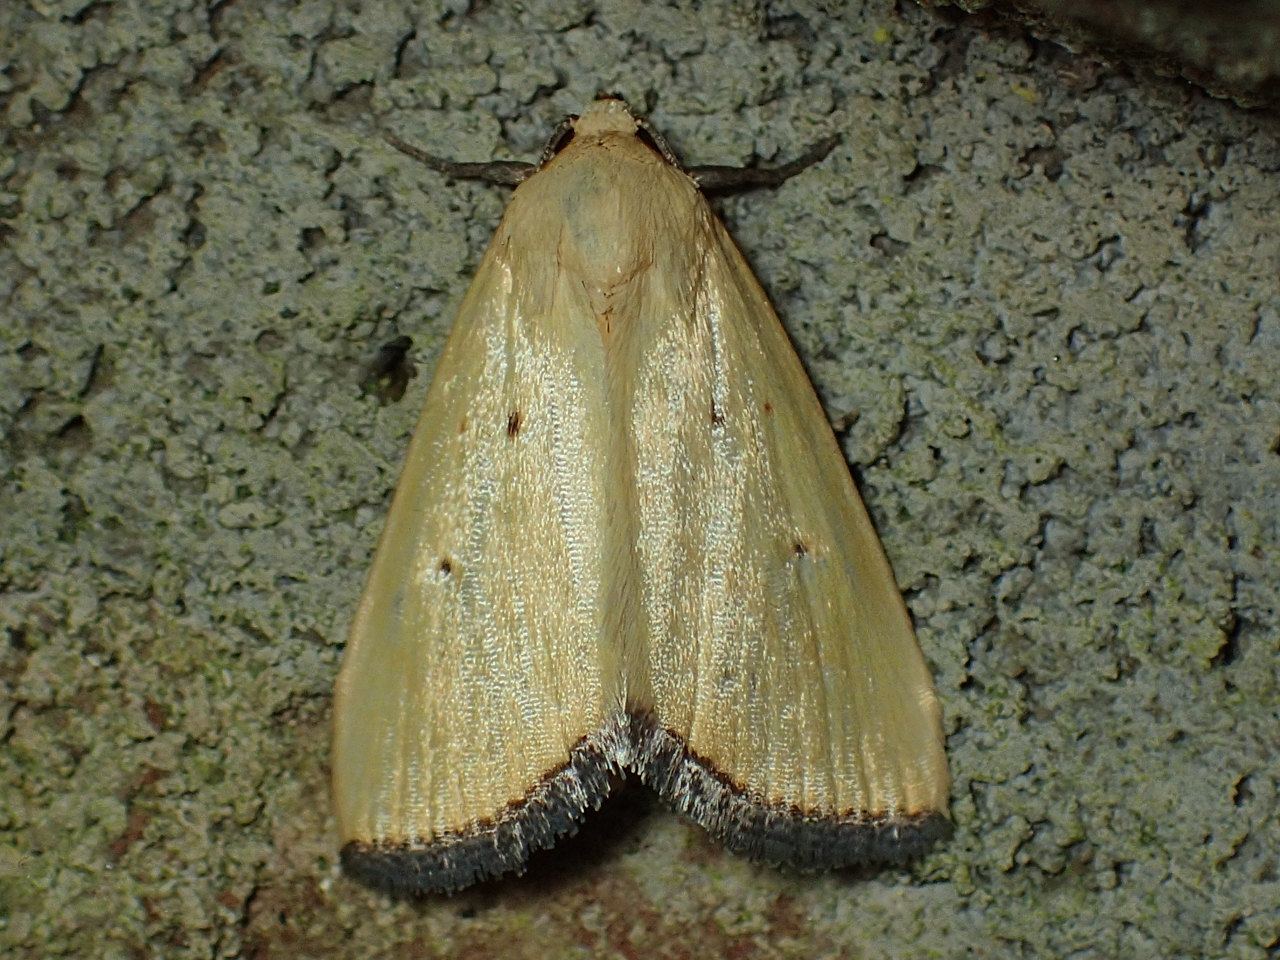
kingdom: Animalia
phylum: Arthropoda
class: Insecta
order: Lepidoptera
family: Noctuidae
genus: Marimatha
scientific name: Marimatha nigrofimbria
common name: Black-bordered lemon moth
